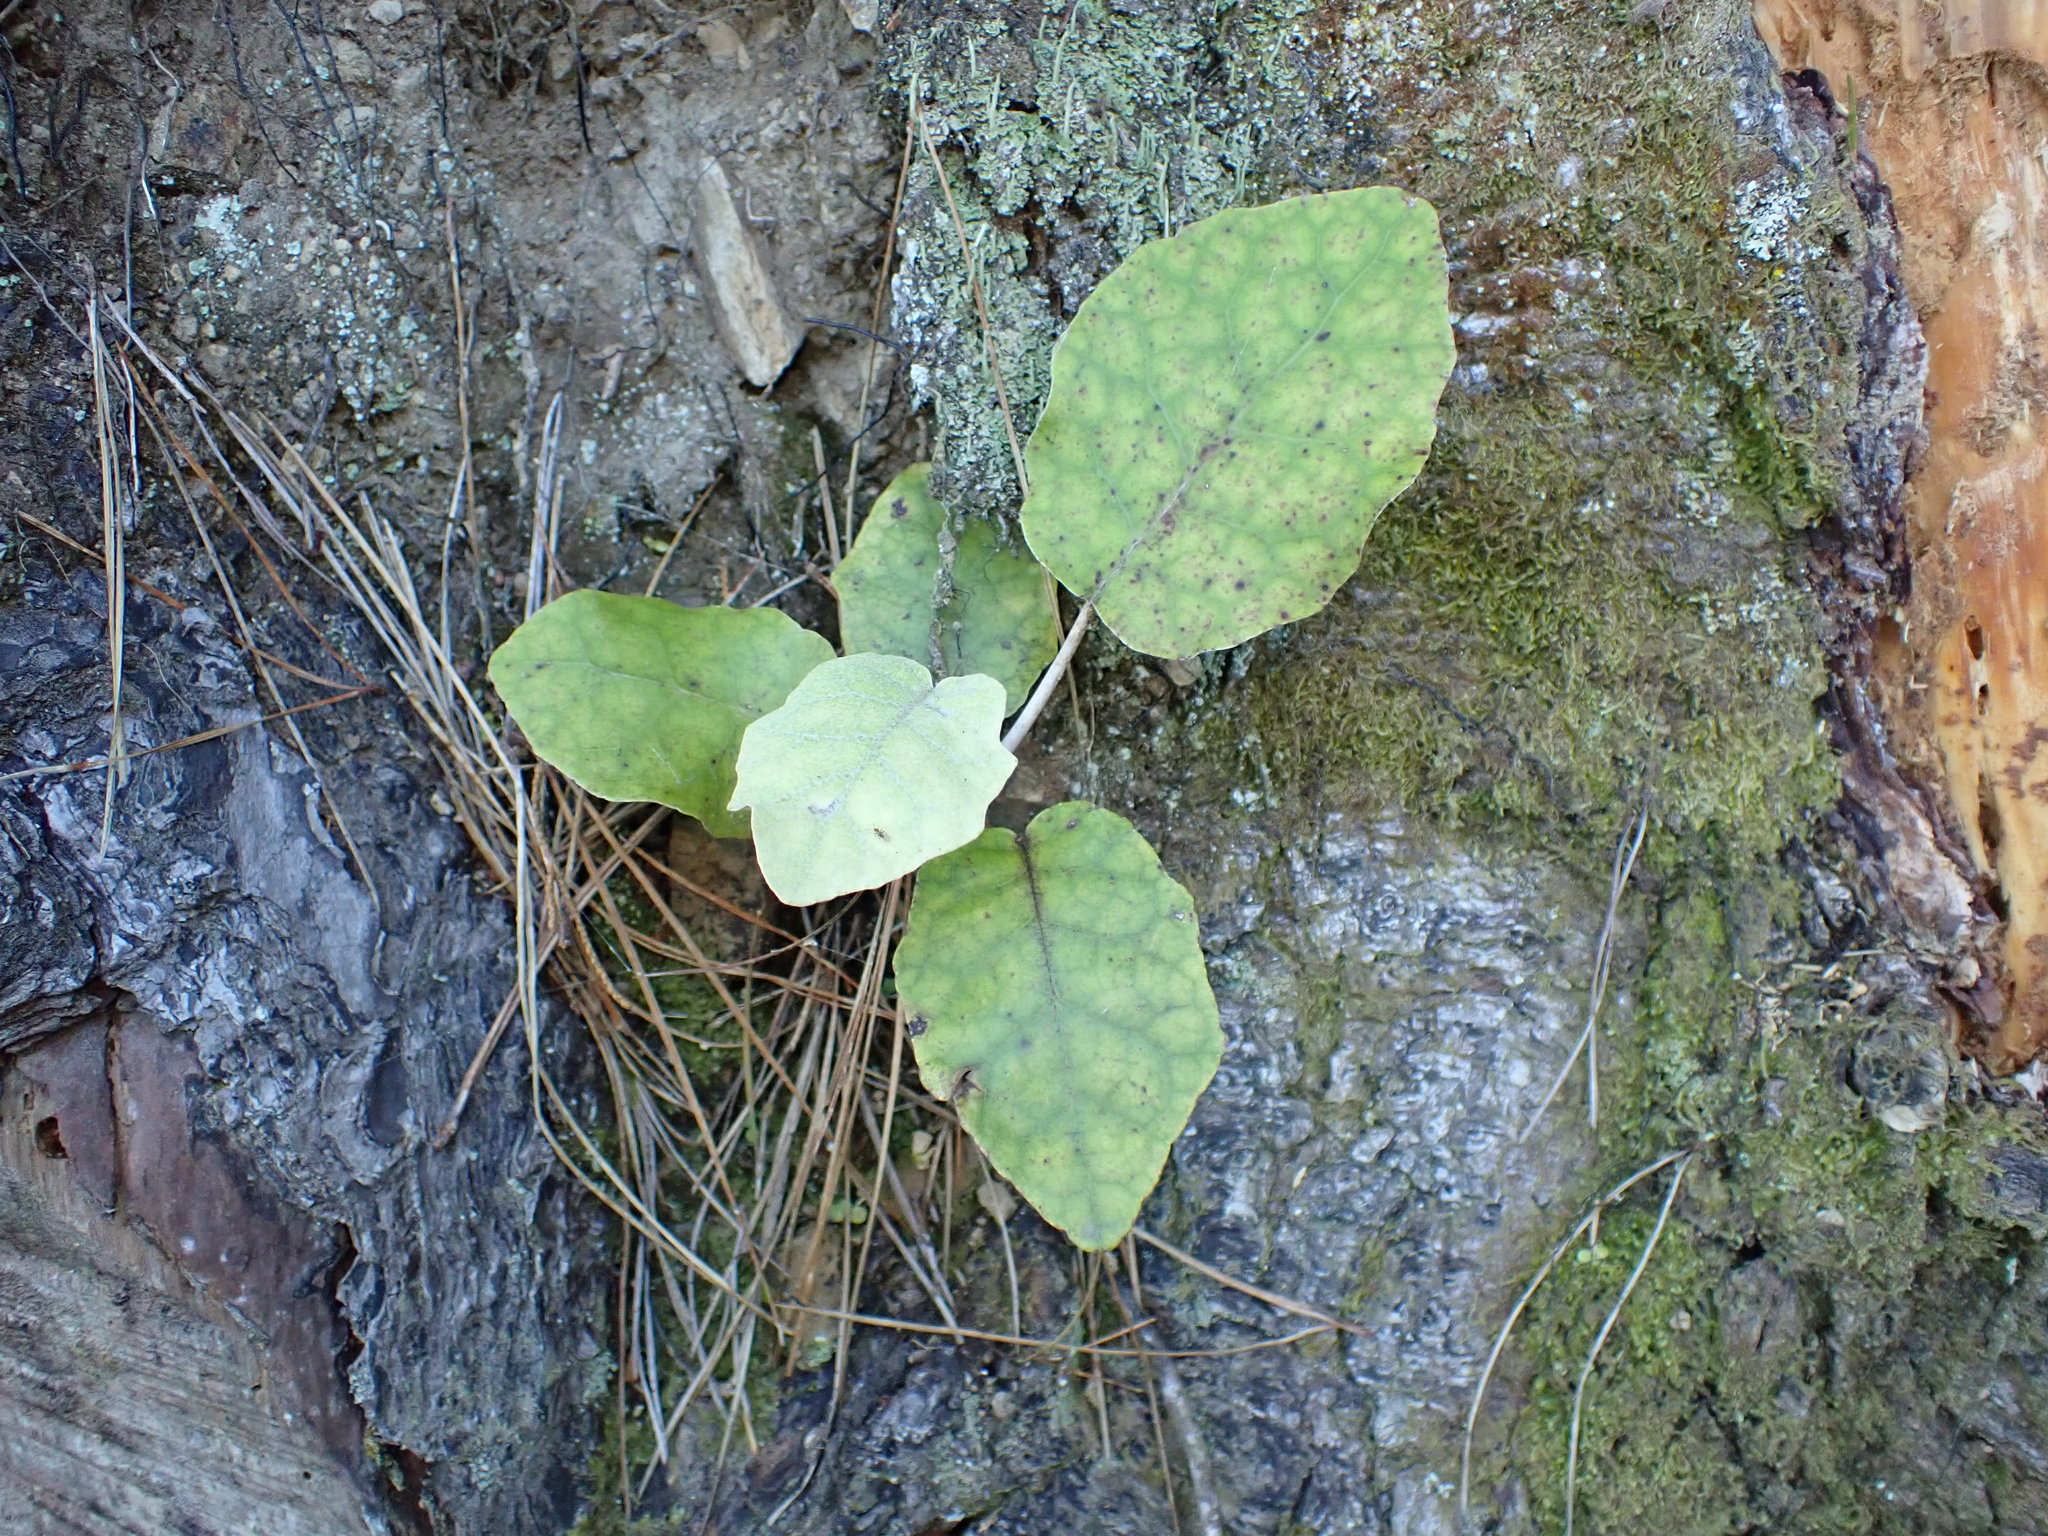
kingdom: Plantae
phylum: Tracheophyta
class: Magnoliopsida
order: Asterales
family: Asteraceae
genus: Brachyglottis
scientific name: Brachyglottis repanda
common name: Hedge ragwort
